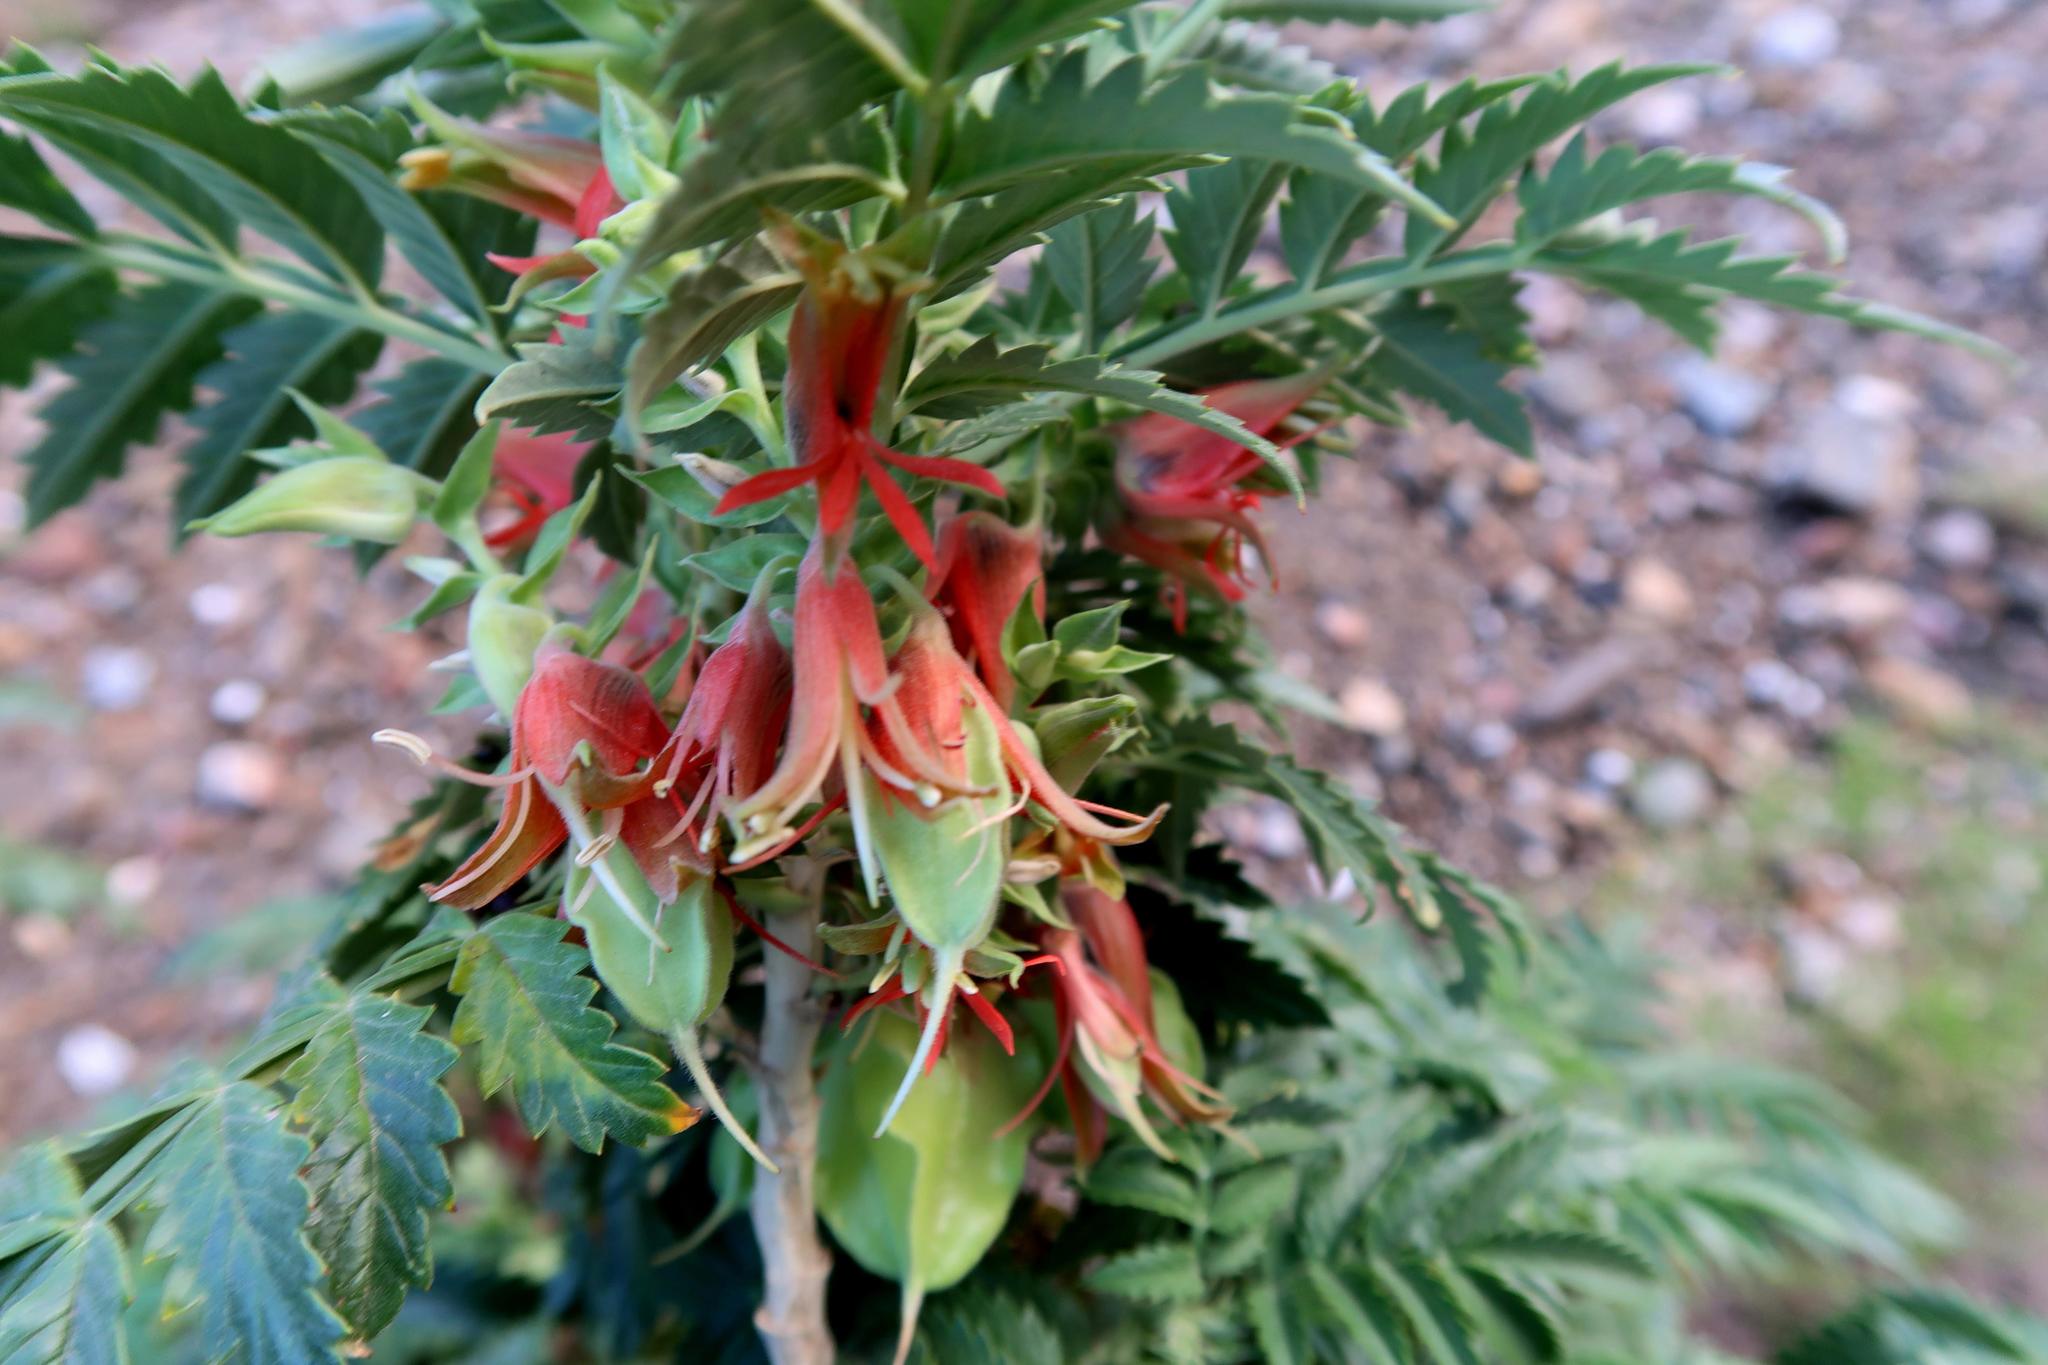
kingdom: Plantae
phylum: Tracheophyta
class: Magnoliopsida
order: Geraniales
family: Melianthaceae
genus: Melianthus
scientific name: Melianthus comosus
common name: Touch-me-not
